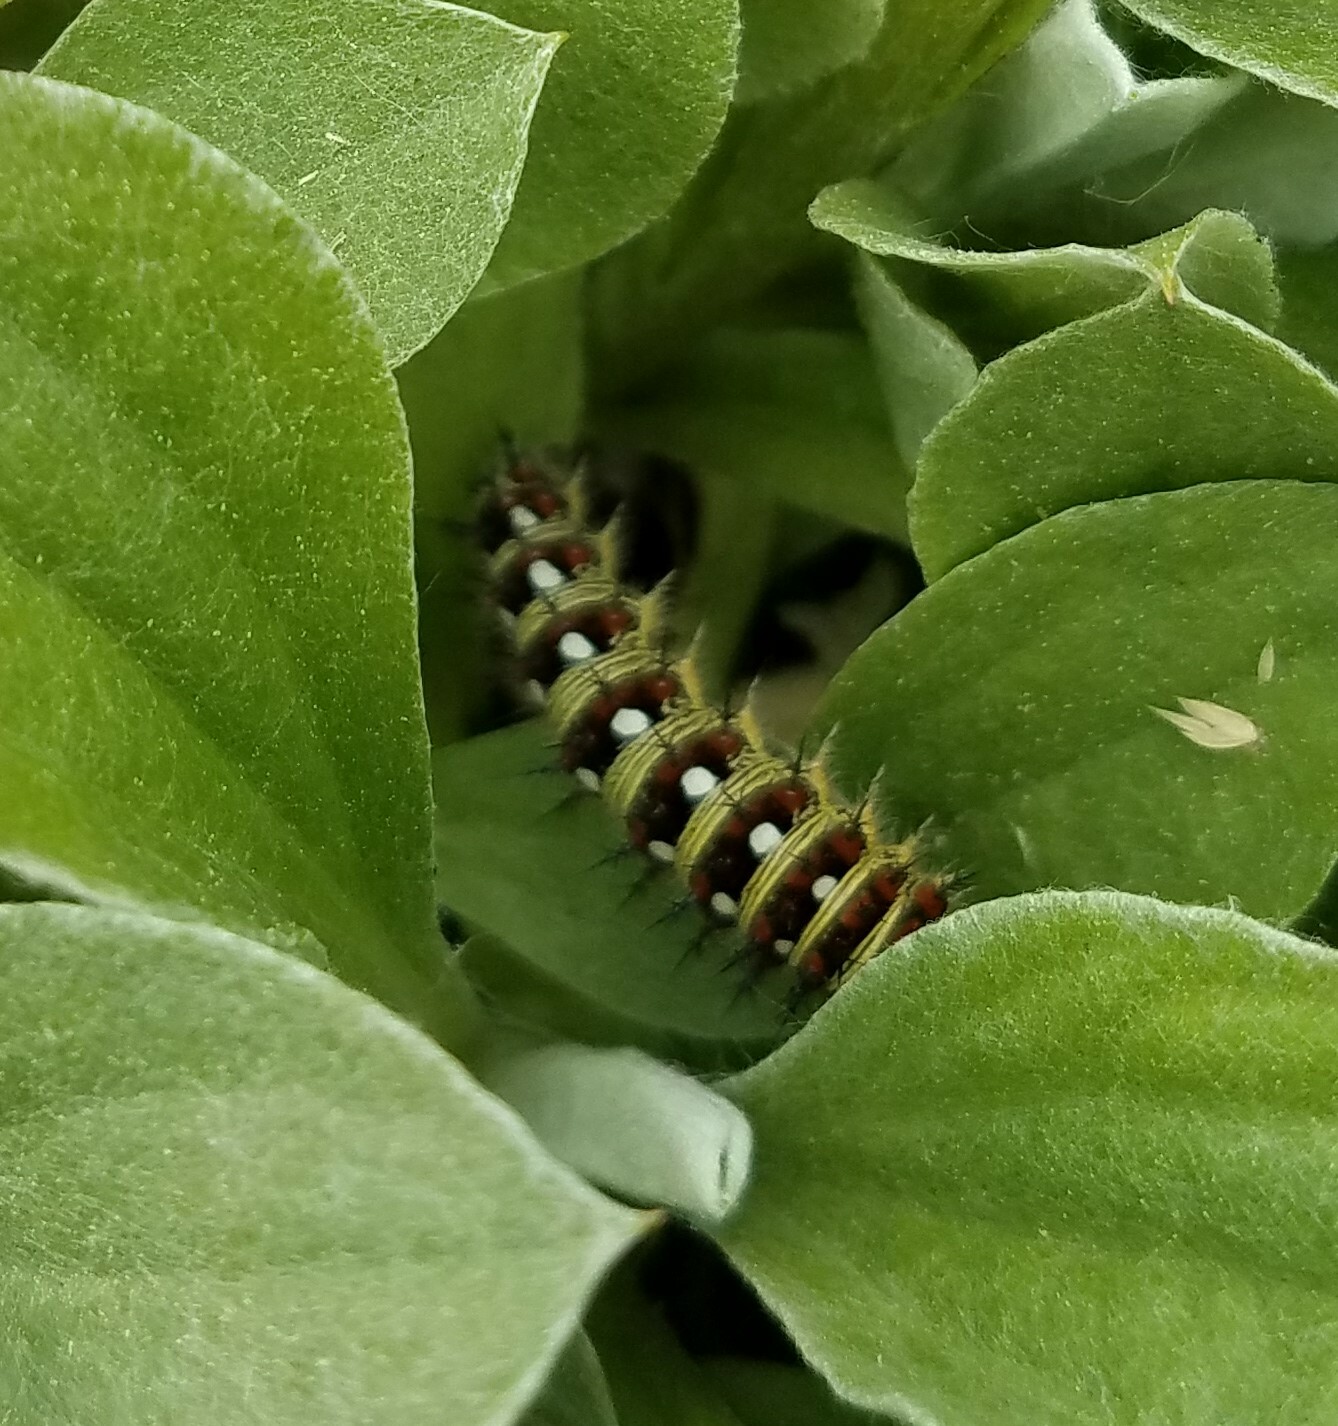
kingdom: Animalia
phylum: Arthropoda
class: Insecta
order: Lepidoptera
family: Nymphalidae
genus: Vanessa
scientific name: Vanessa virginiensis
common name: American lady
